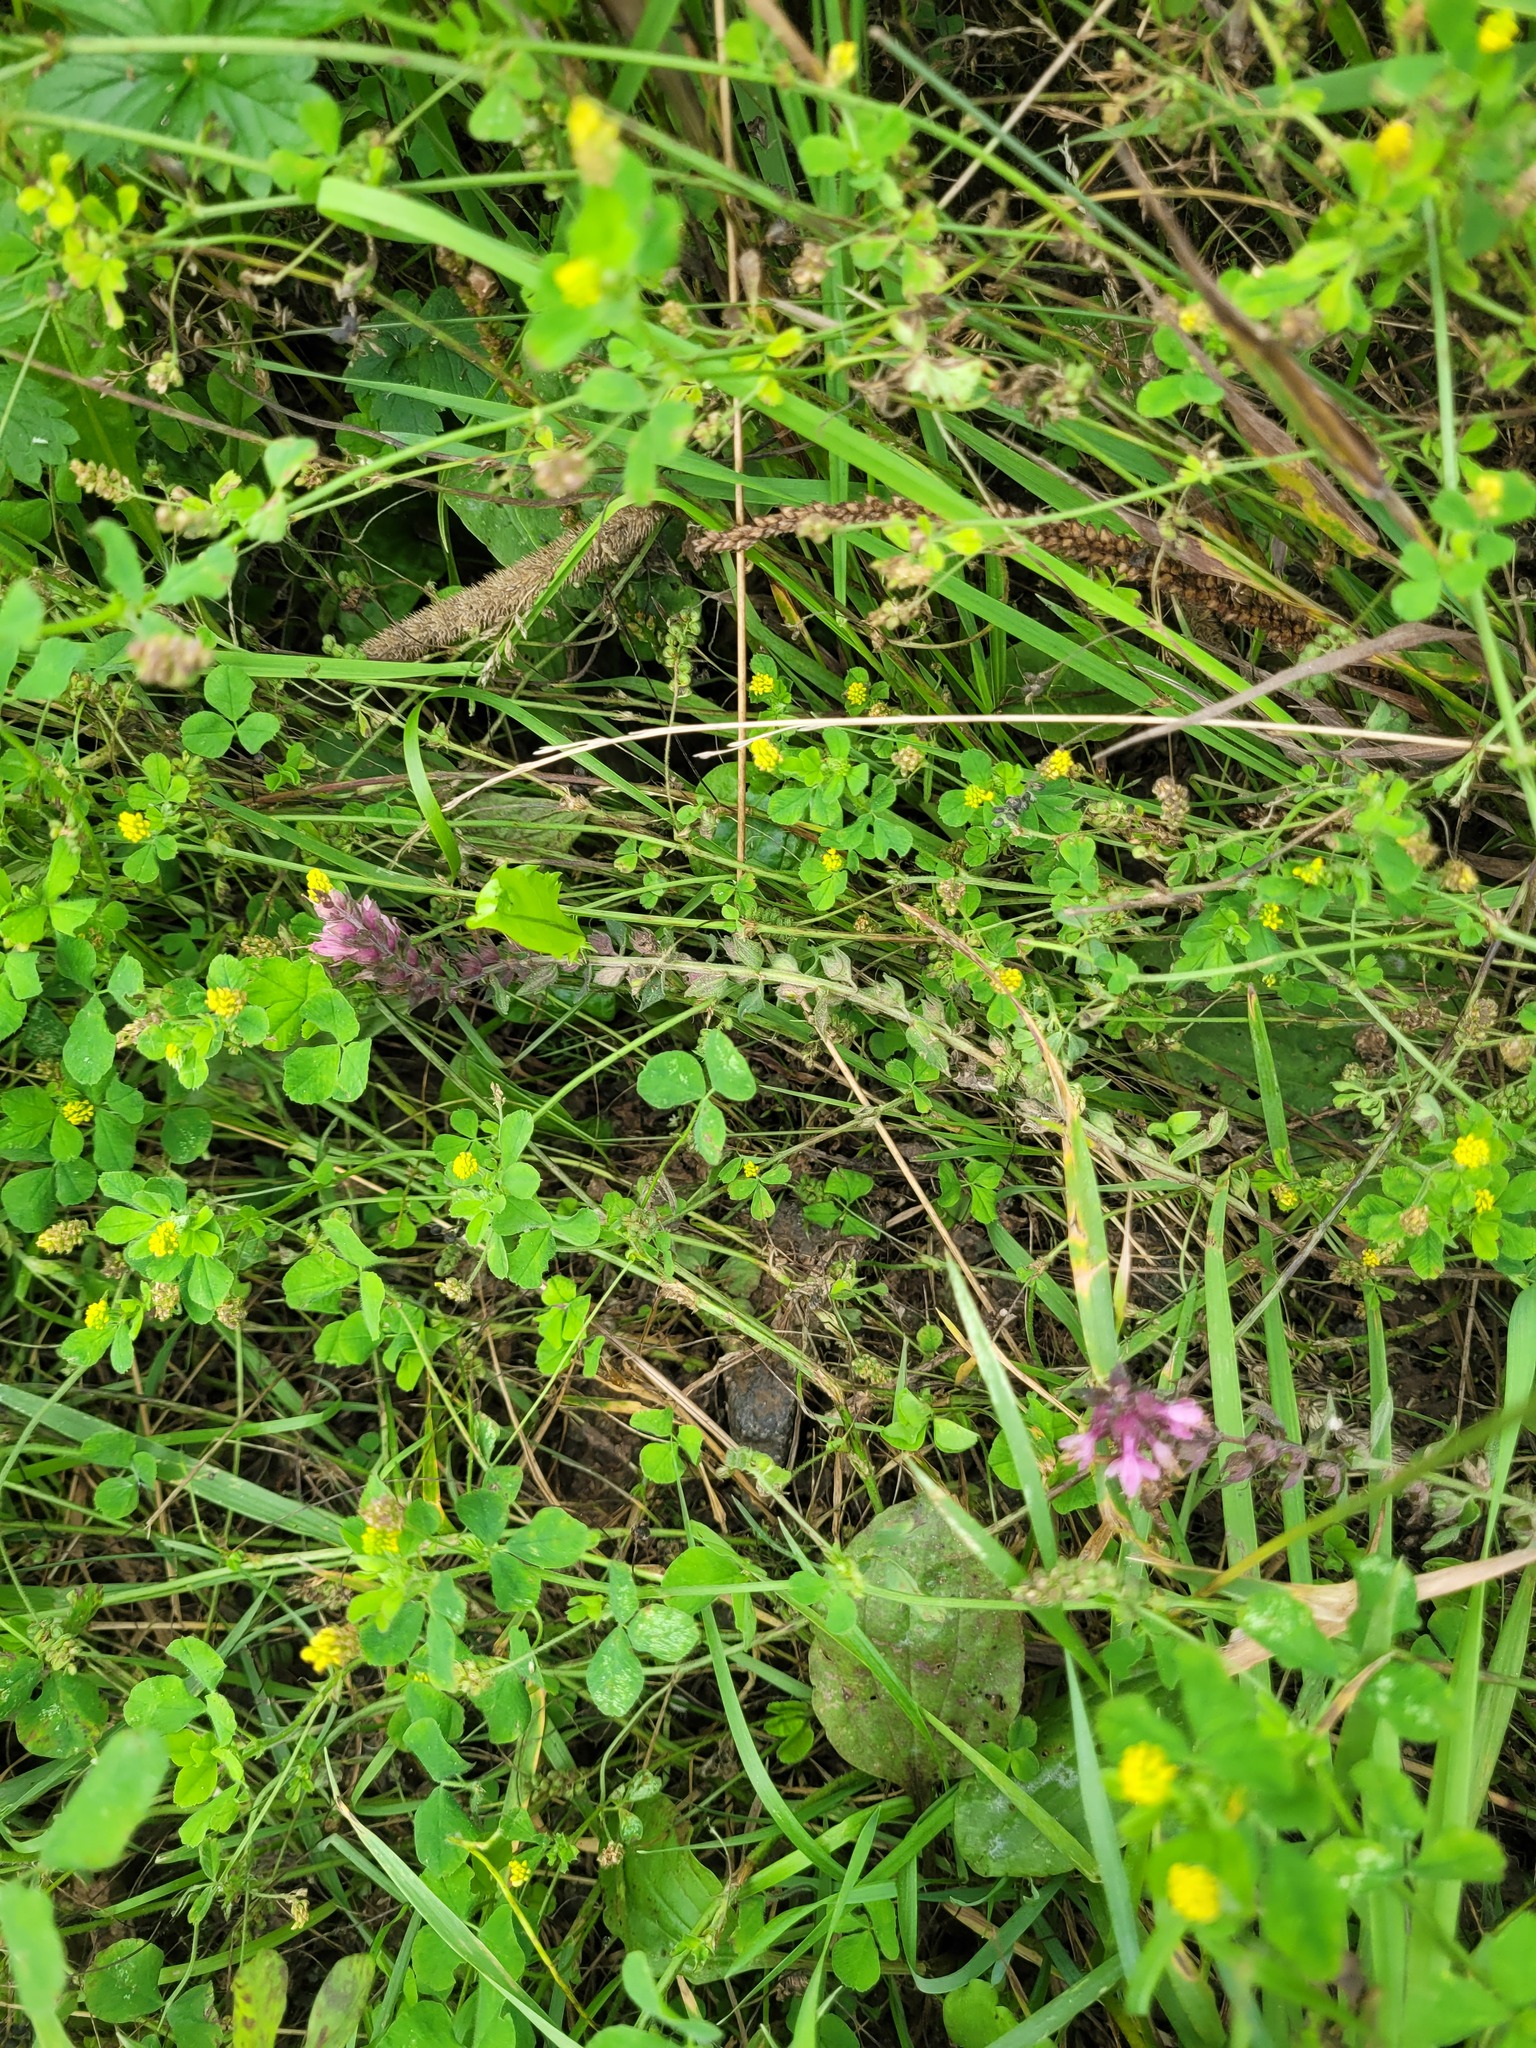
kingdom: Plantae
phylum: Tracheophyta
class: Magnoliopsida
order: Lamiales
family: Orobanchaceae
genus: Odontites
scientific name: Odontites vulgaris
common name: Broomrape
